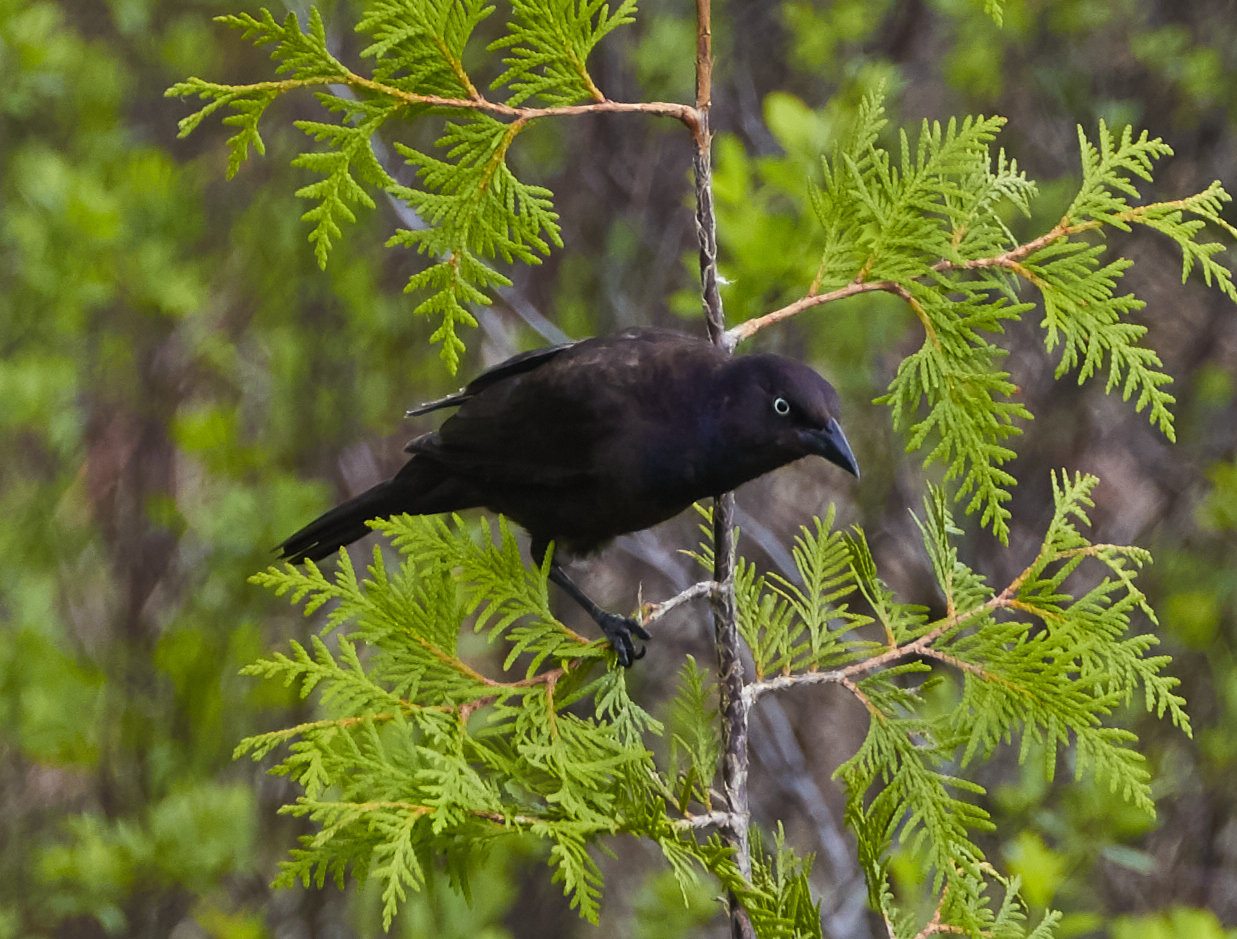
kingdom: Animalia
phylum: Chordata
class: Aves
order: Passeriformes
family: Icteridae
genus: Quiscalus
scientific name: Quiscalus quiscula
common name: Common grackle
